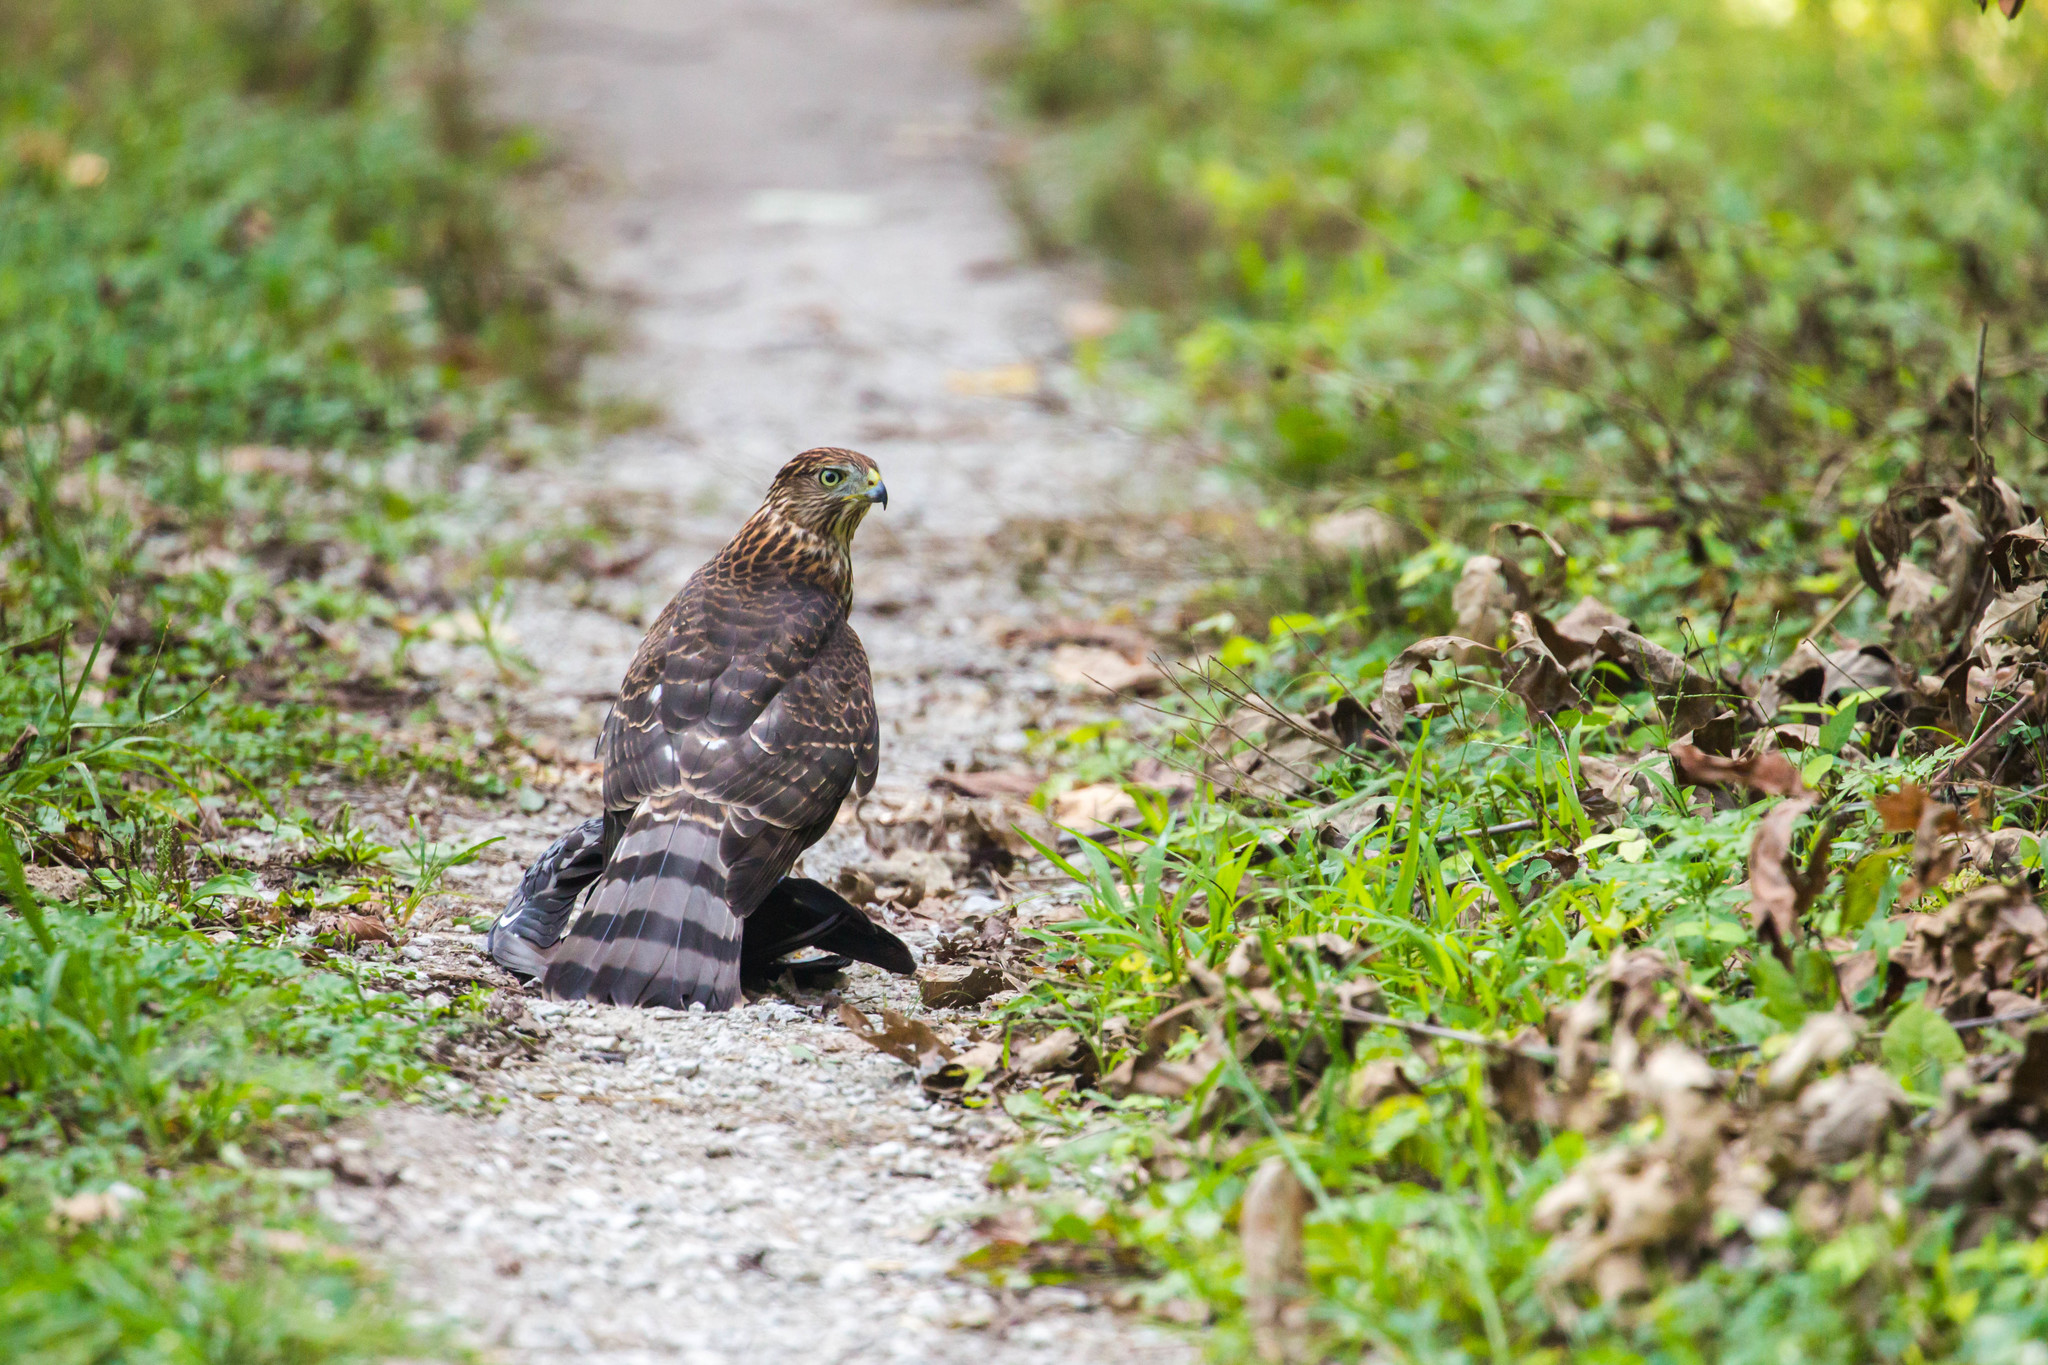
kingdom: Animalia
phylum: Chordata
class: Aves
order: Accipitriformes
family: Accipitridae
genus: Accipiter
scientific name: Accipiter cooperii
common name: Cooper's hawk
